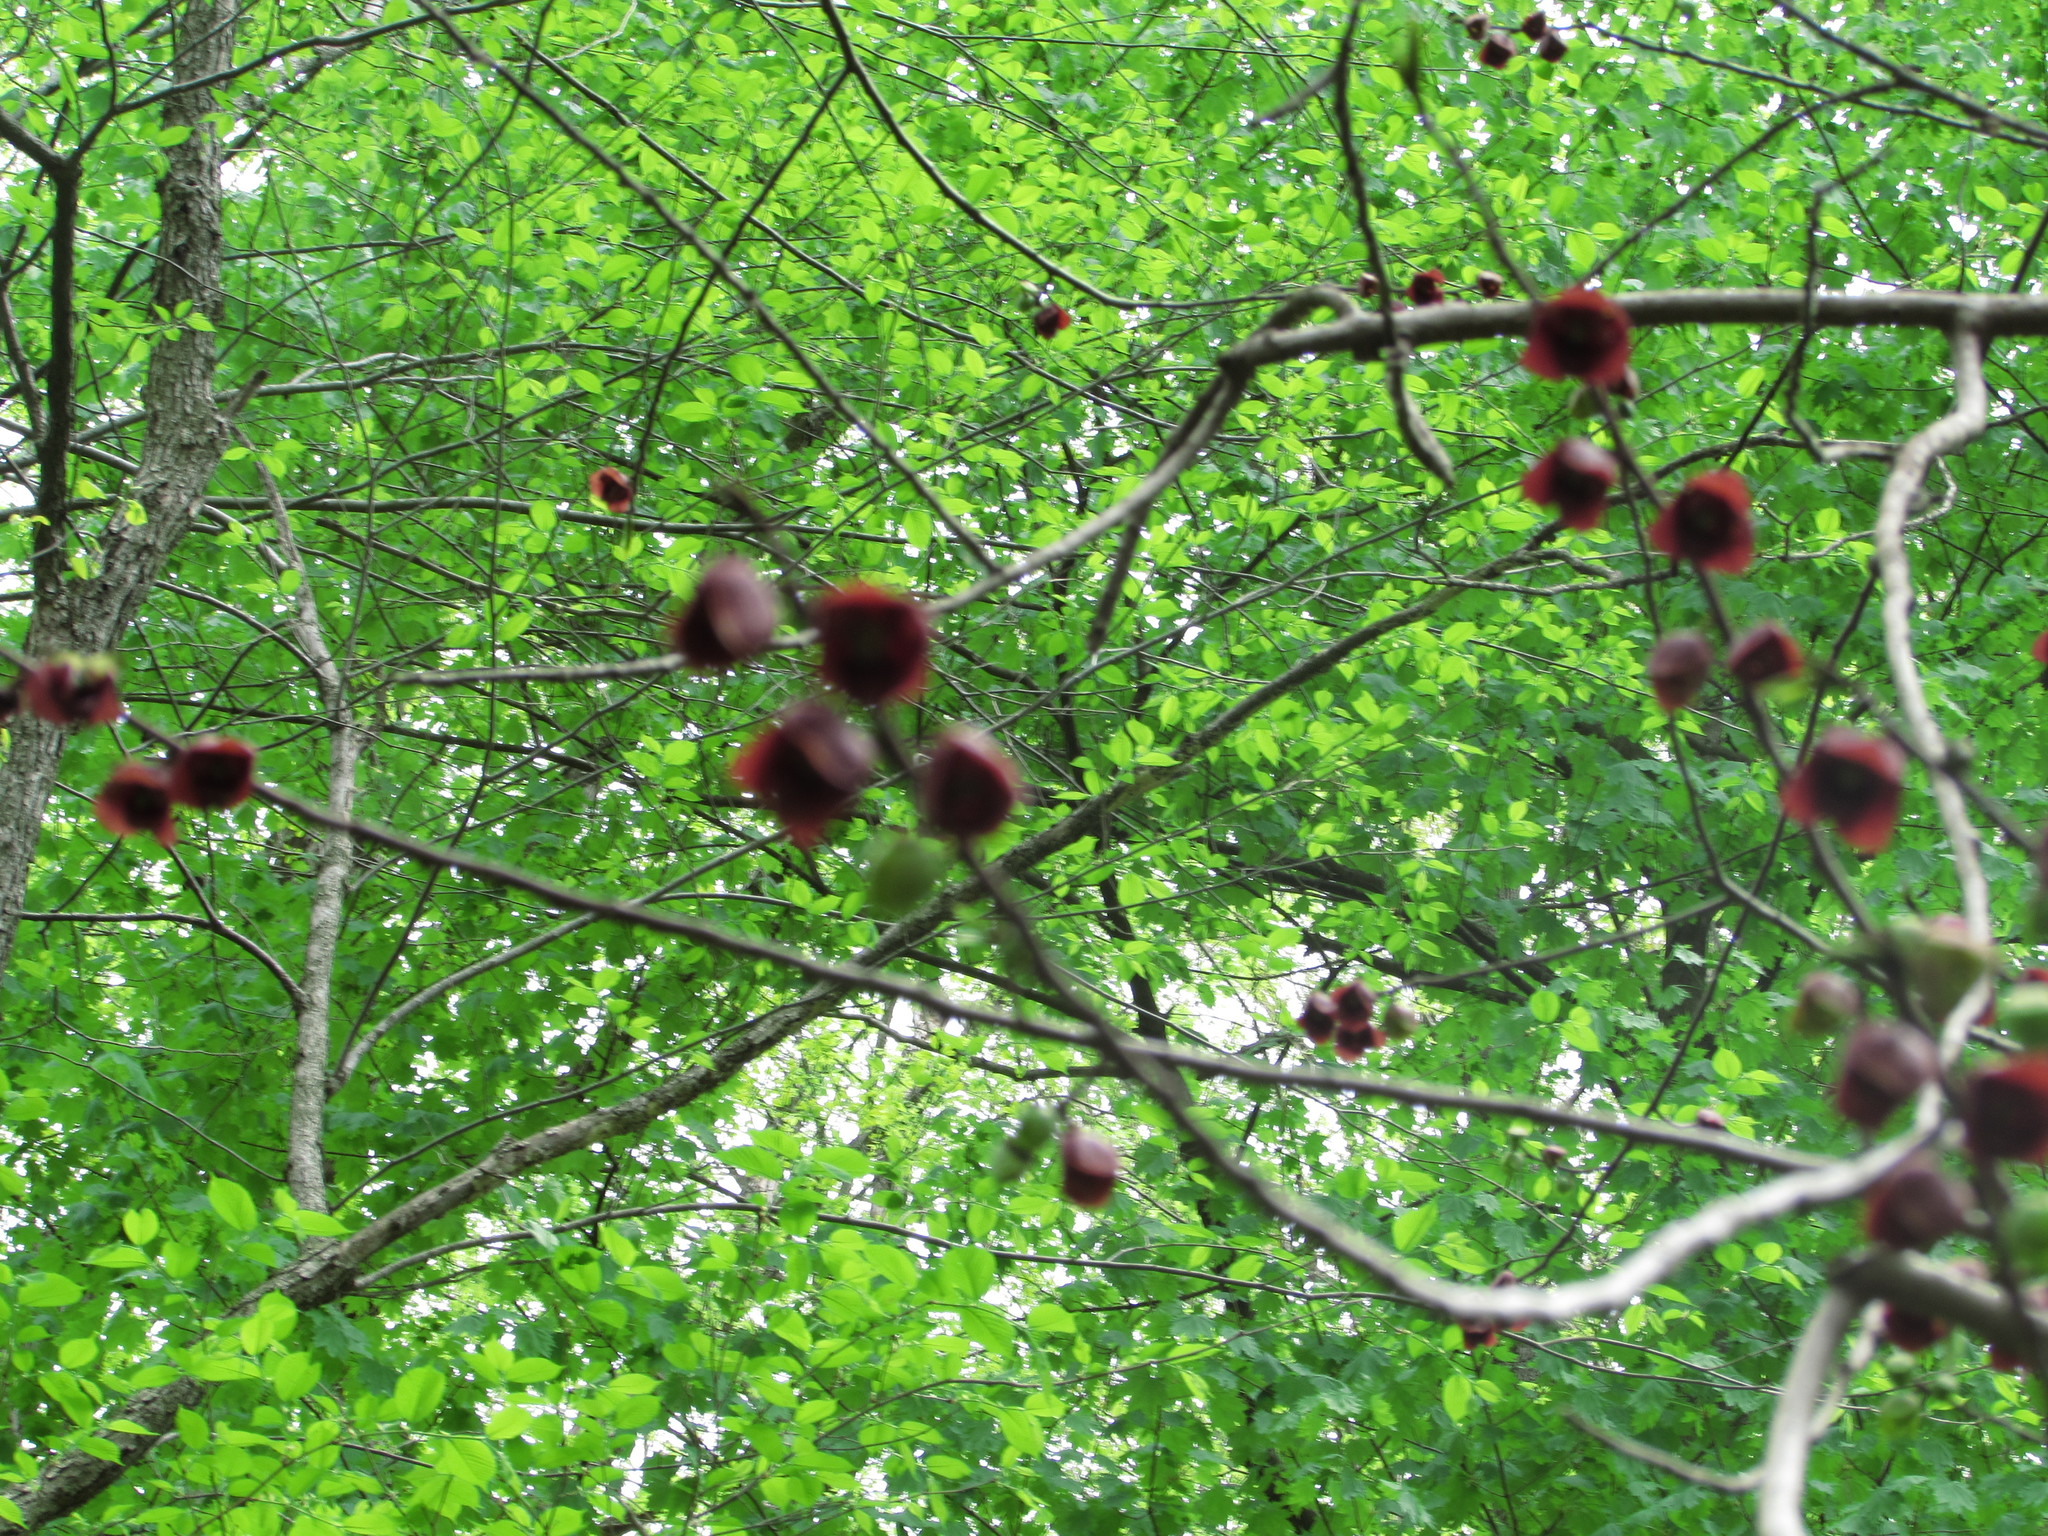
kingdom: Plantae
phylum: Tracheophyta
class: Magnoliopsida
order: Magnoliales
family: Annonaceae
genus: Asimina
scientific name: Asimina triloba
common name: Dog-banana
